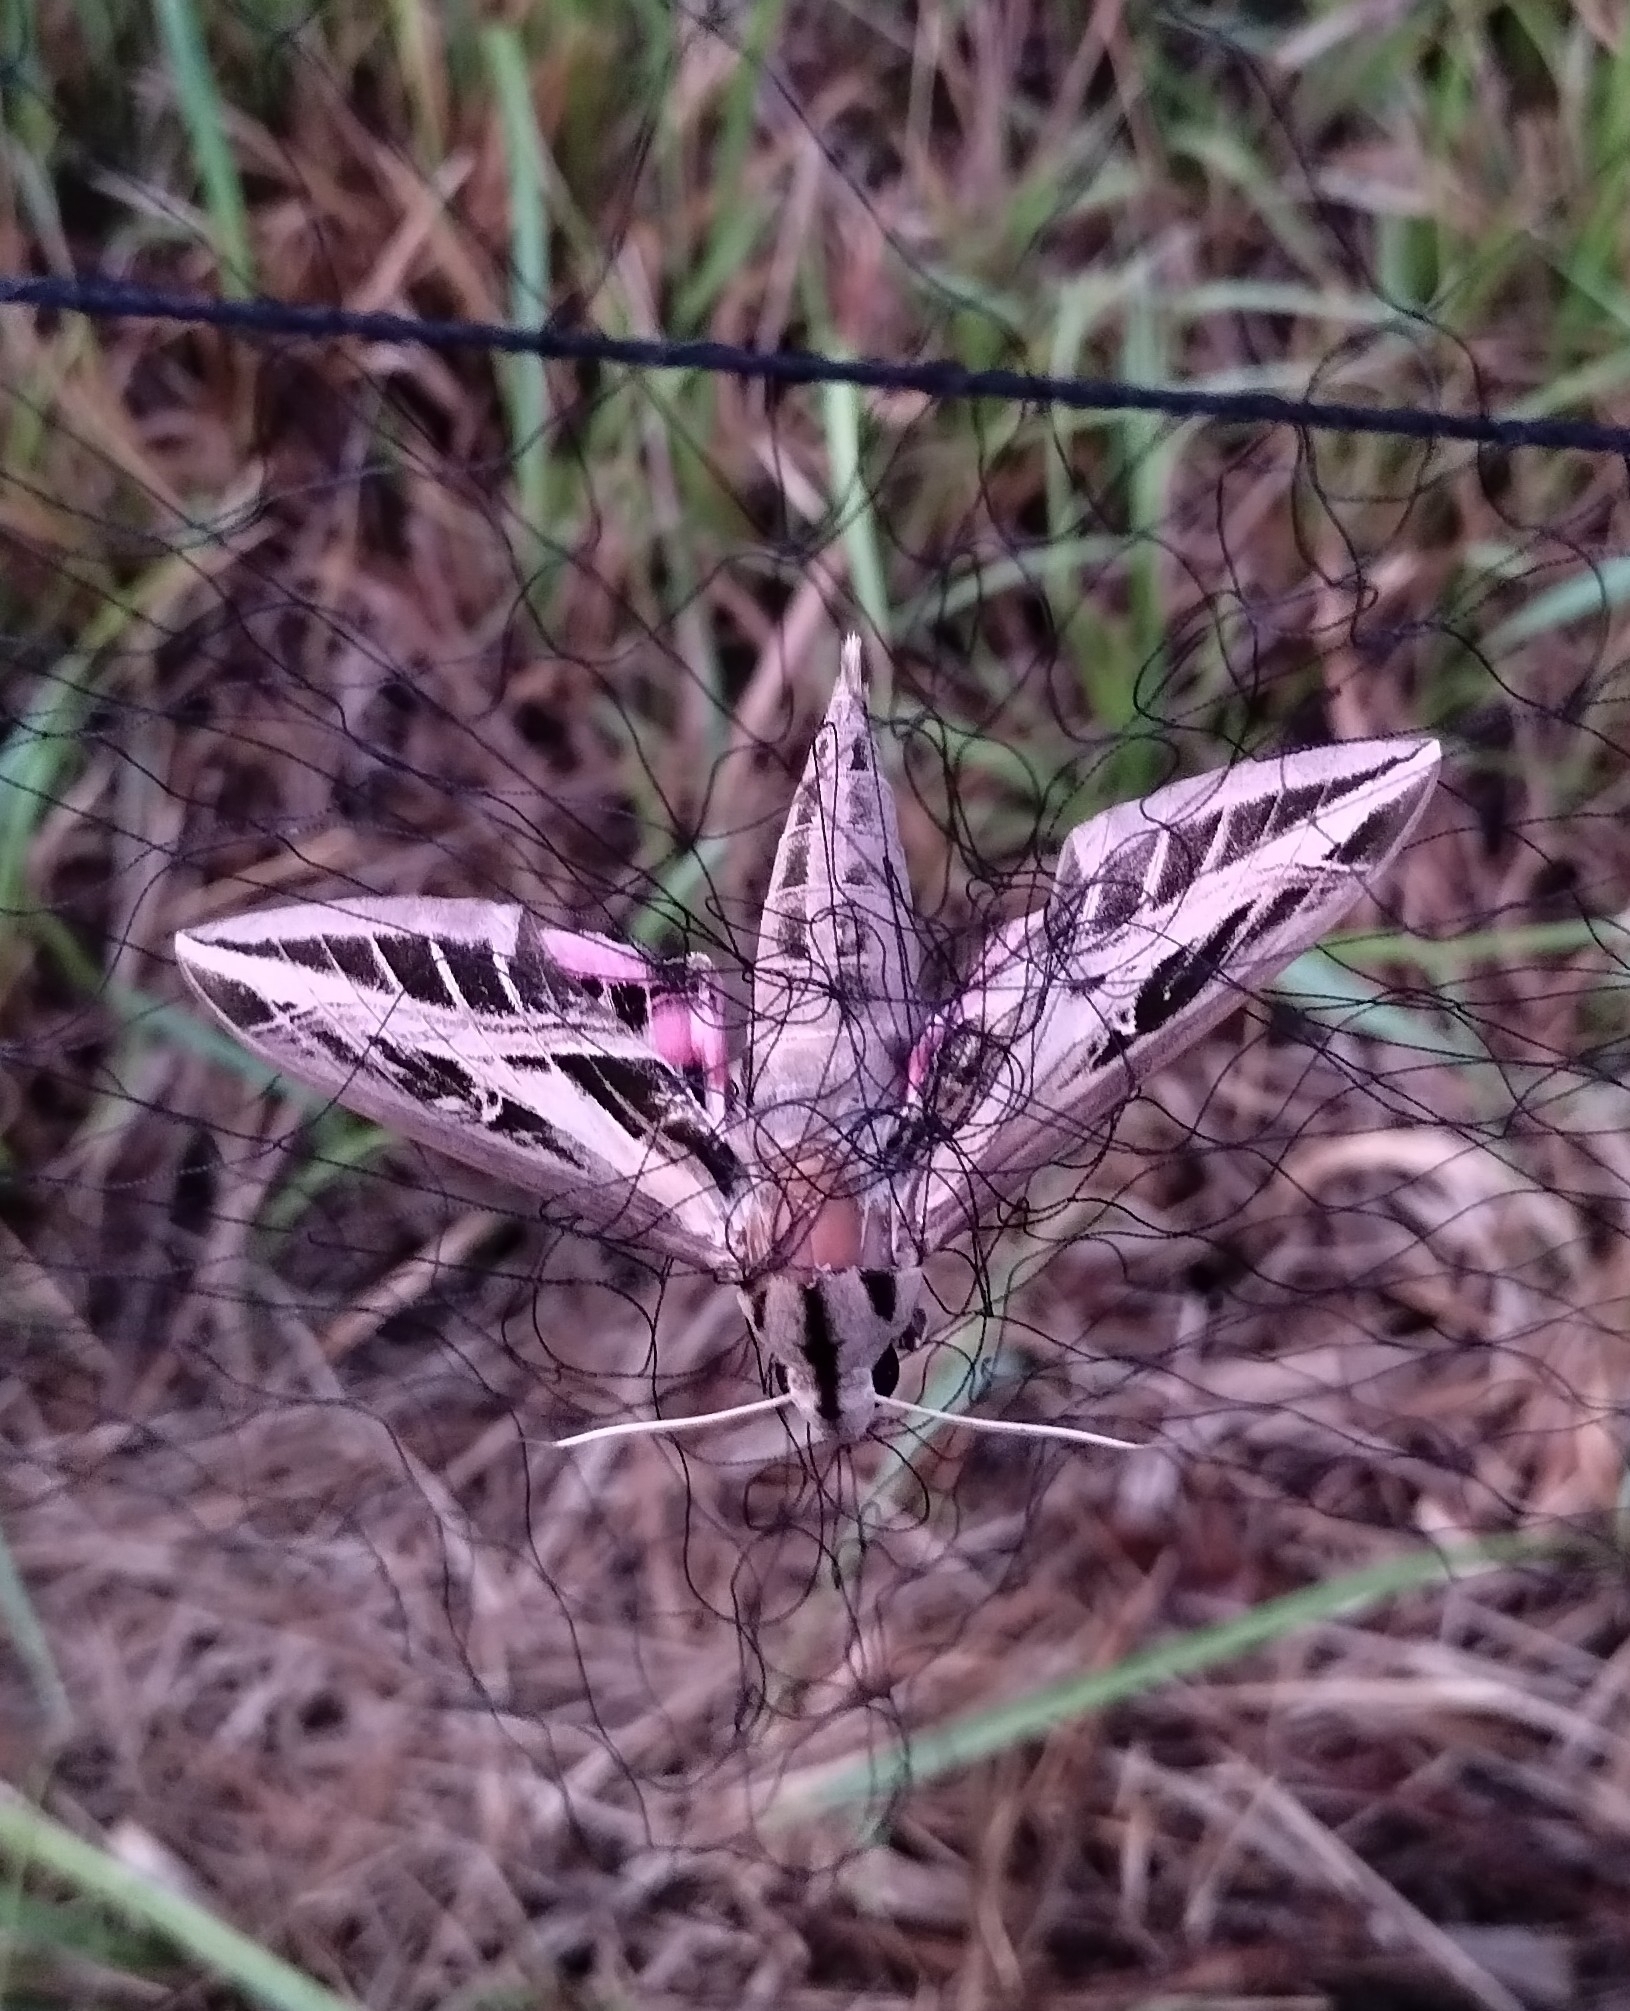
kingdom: Animalia
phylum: Arthropoda
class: Insecta
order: Lepidoptera
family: Sphingidae
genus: Eumorpha
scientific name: Eumorpha fasciatus
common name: Banded sphinx
